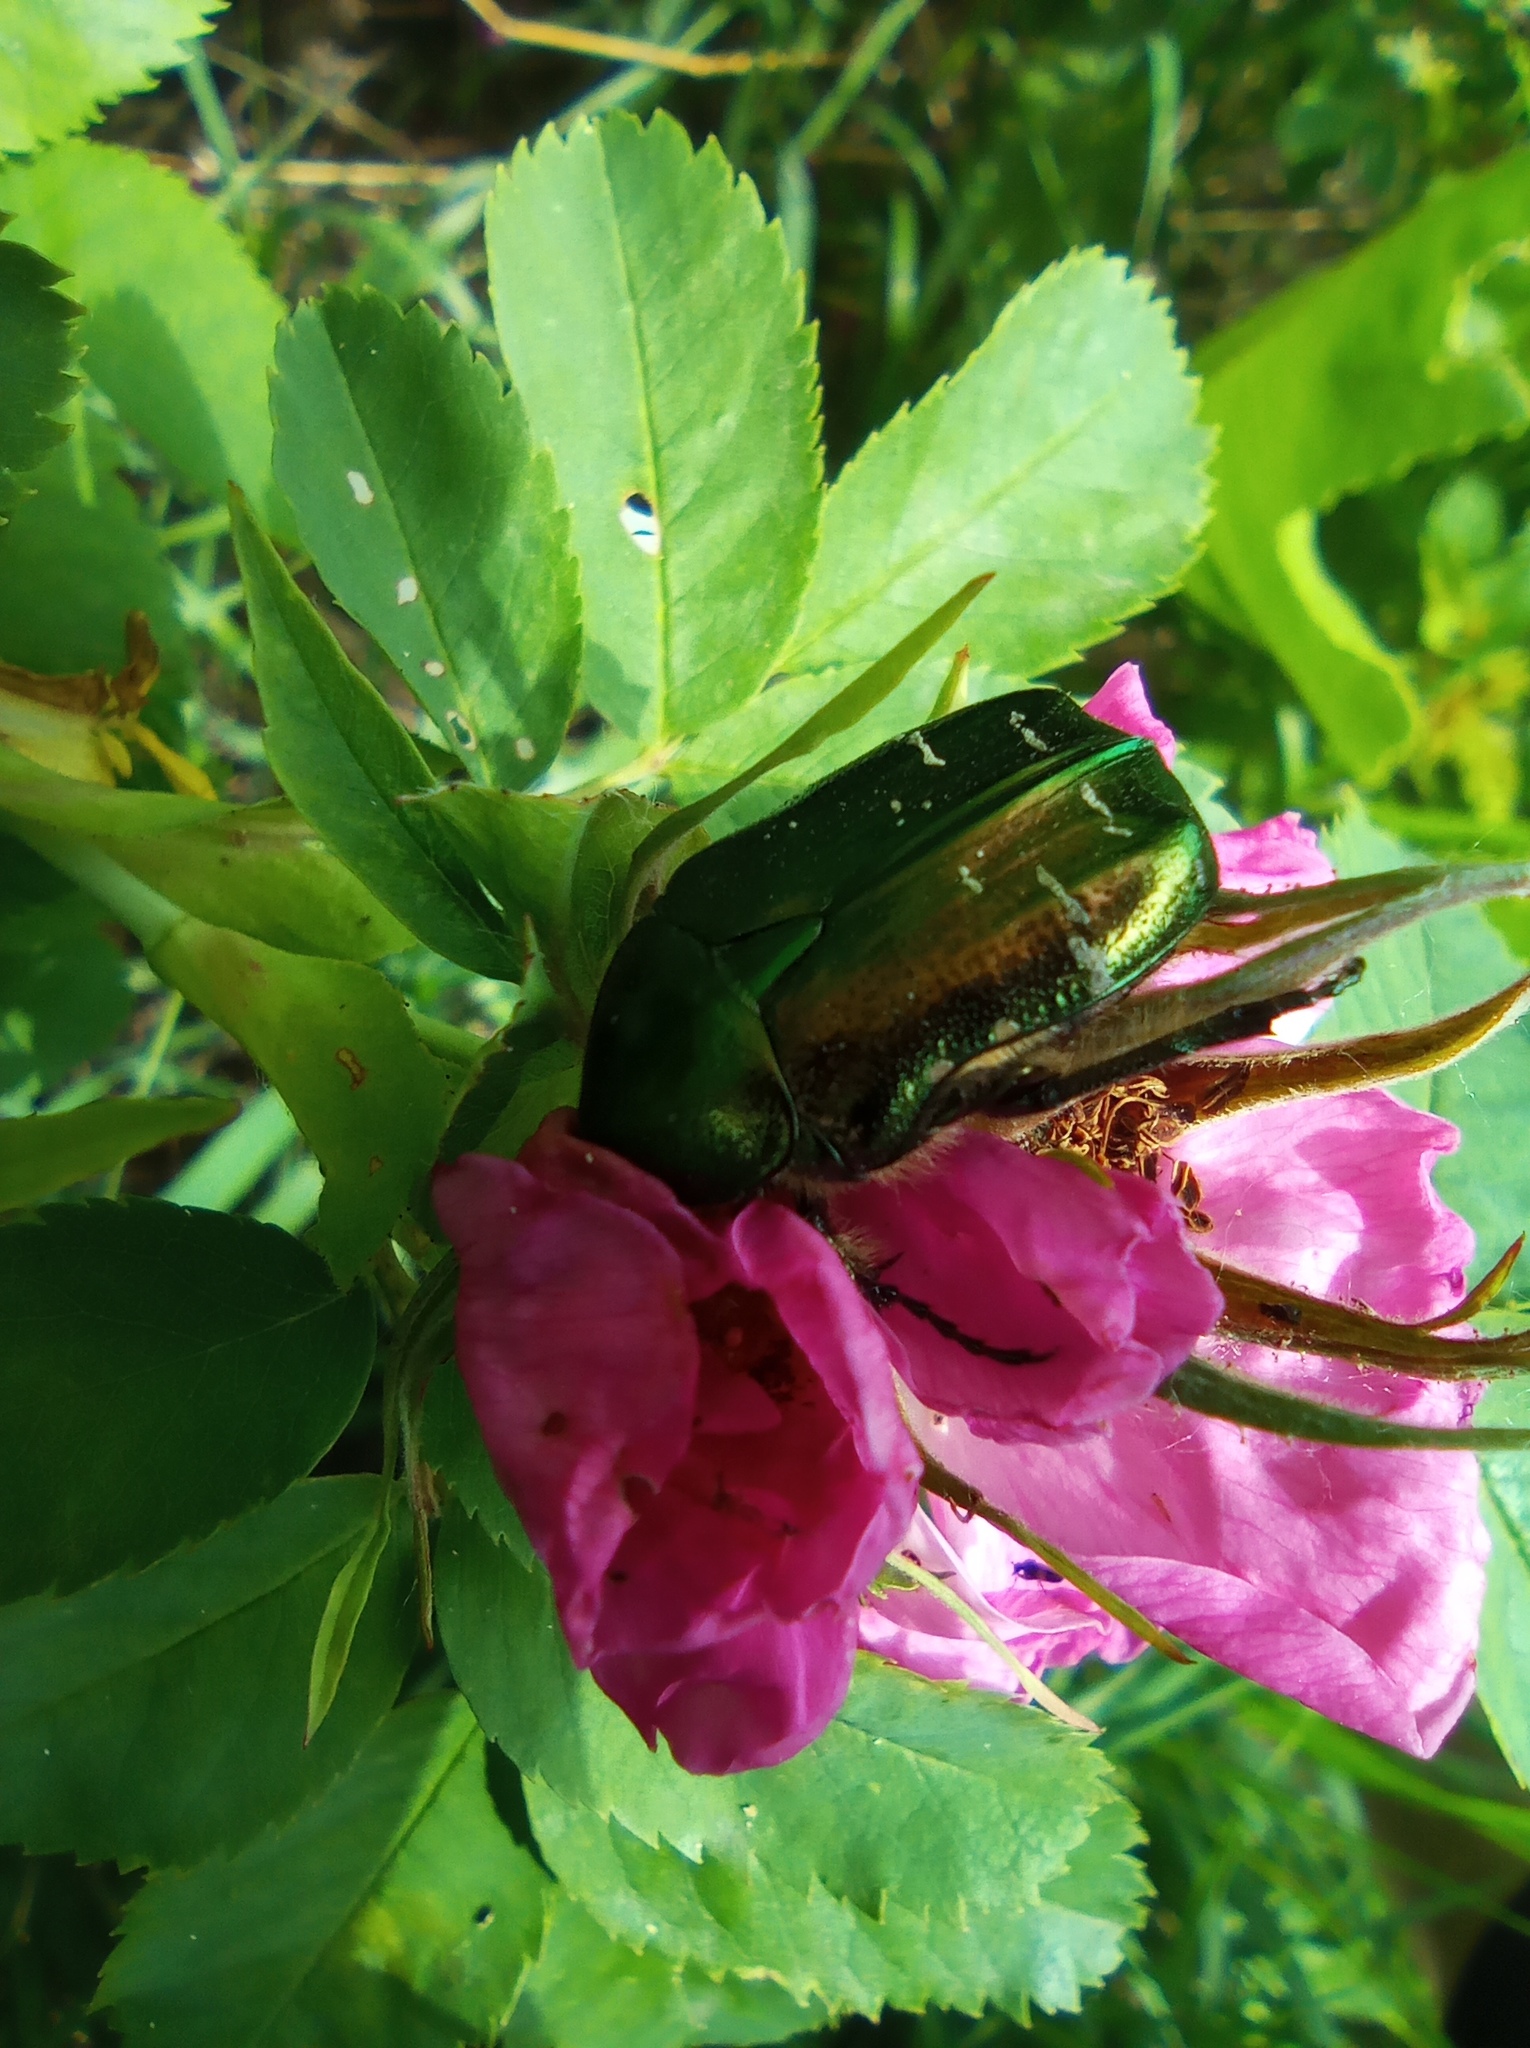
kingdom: Animalia
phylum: Arthropoda
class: Insecta
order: Coleoptera
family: Scarabaeidae
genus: Cetonia
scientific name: Cetonia aurata
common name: Rose chafer
